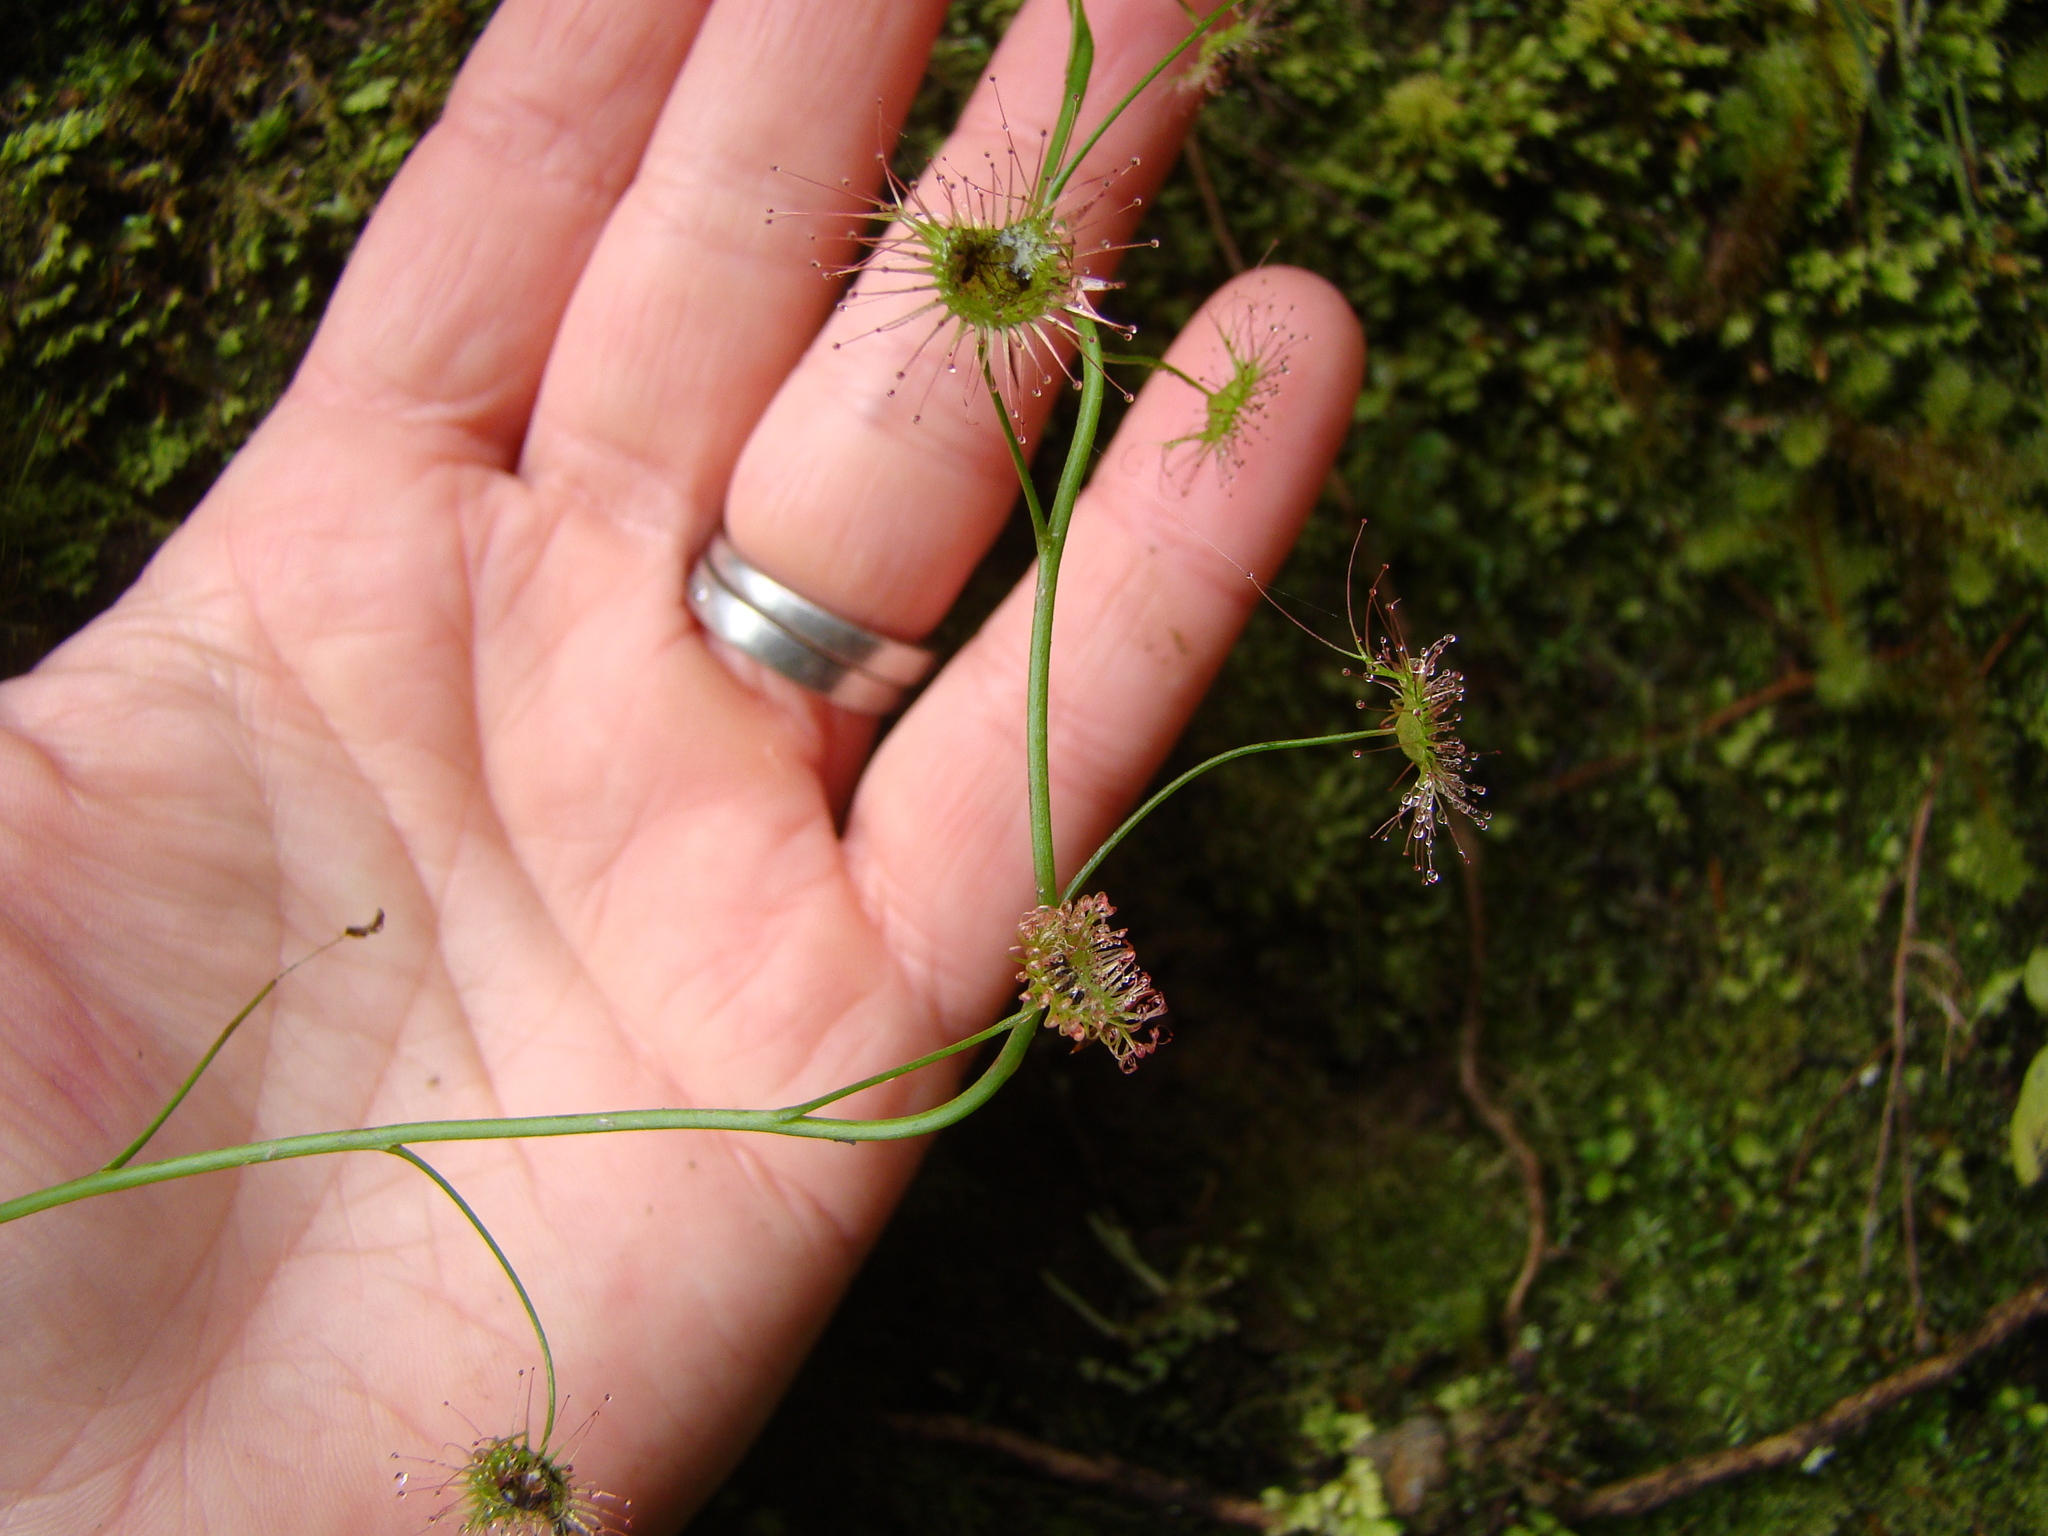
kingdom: Plantae
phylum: Tracheophyta
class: Magnoliopsida
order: Caryophyllales
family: Droseraceae
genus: Drosera
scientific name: Drosera peltata
